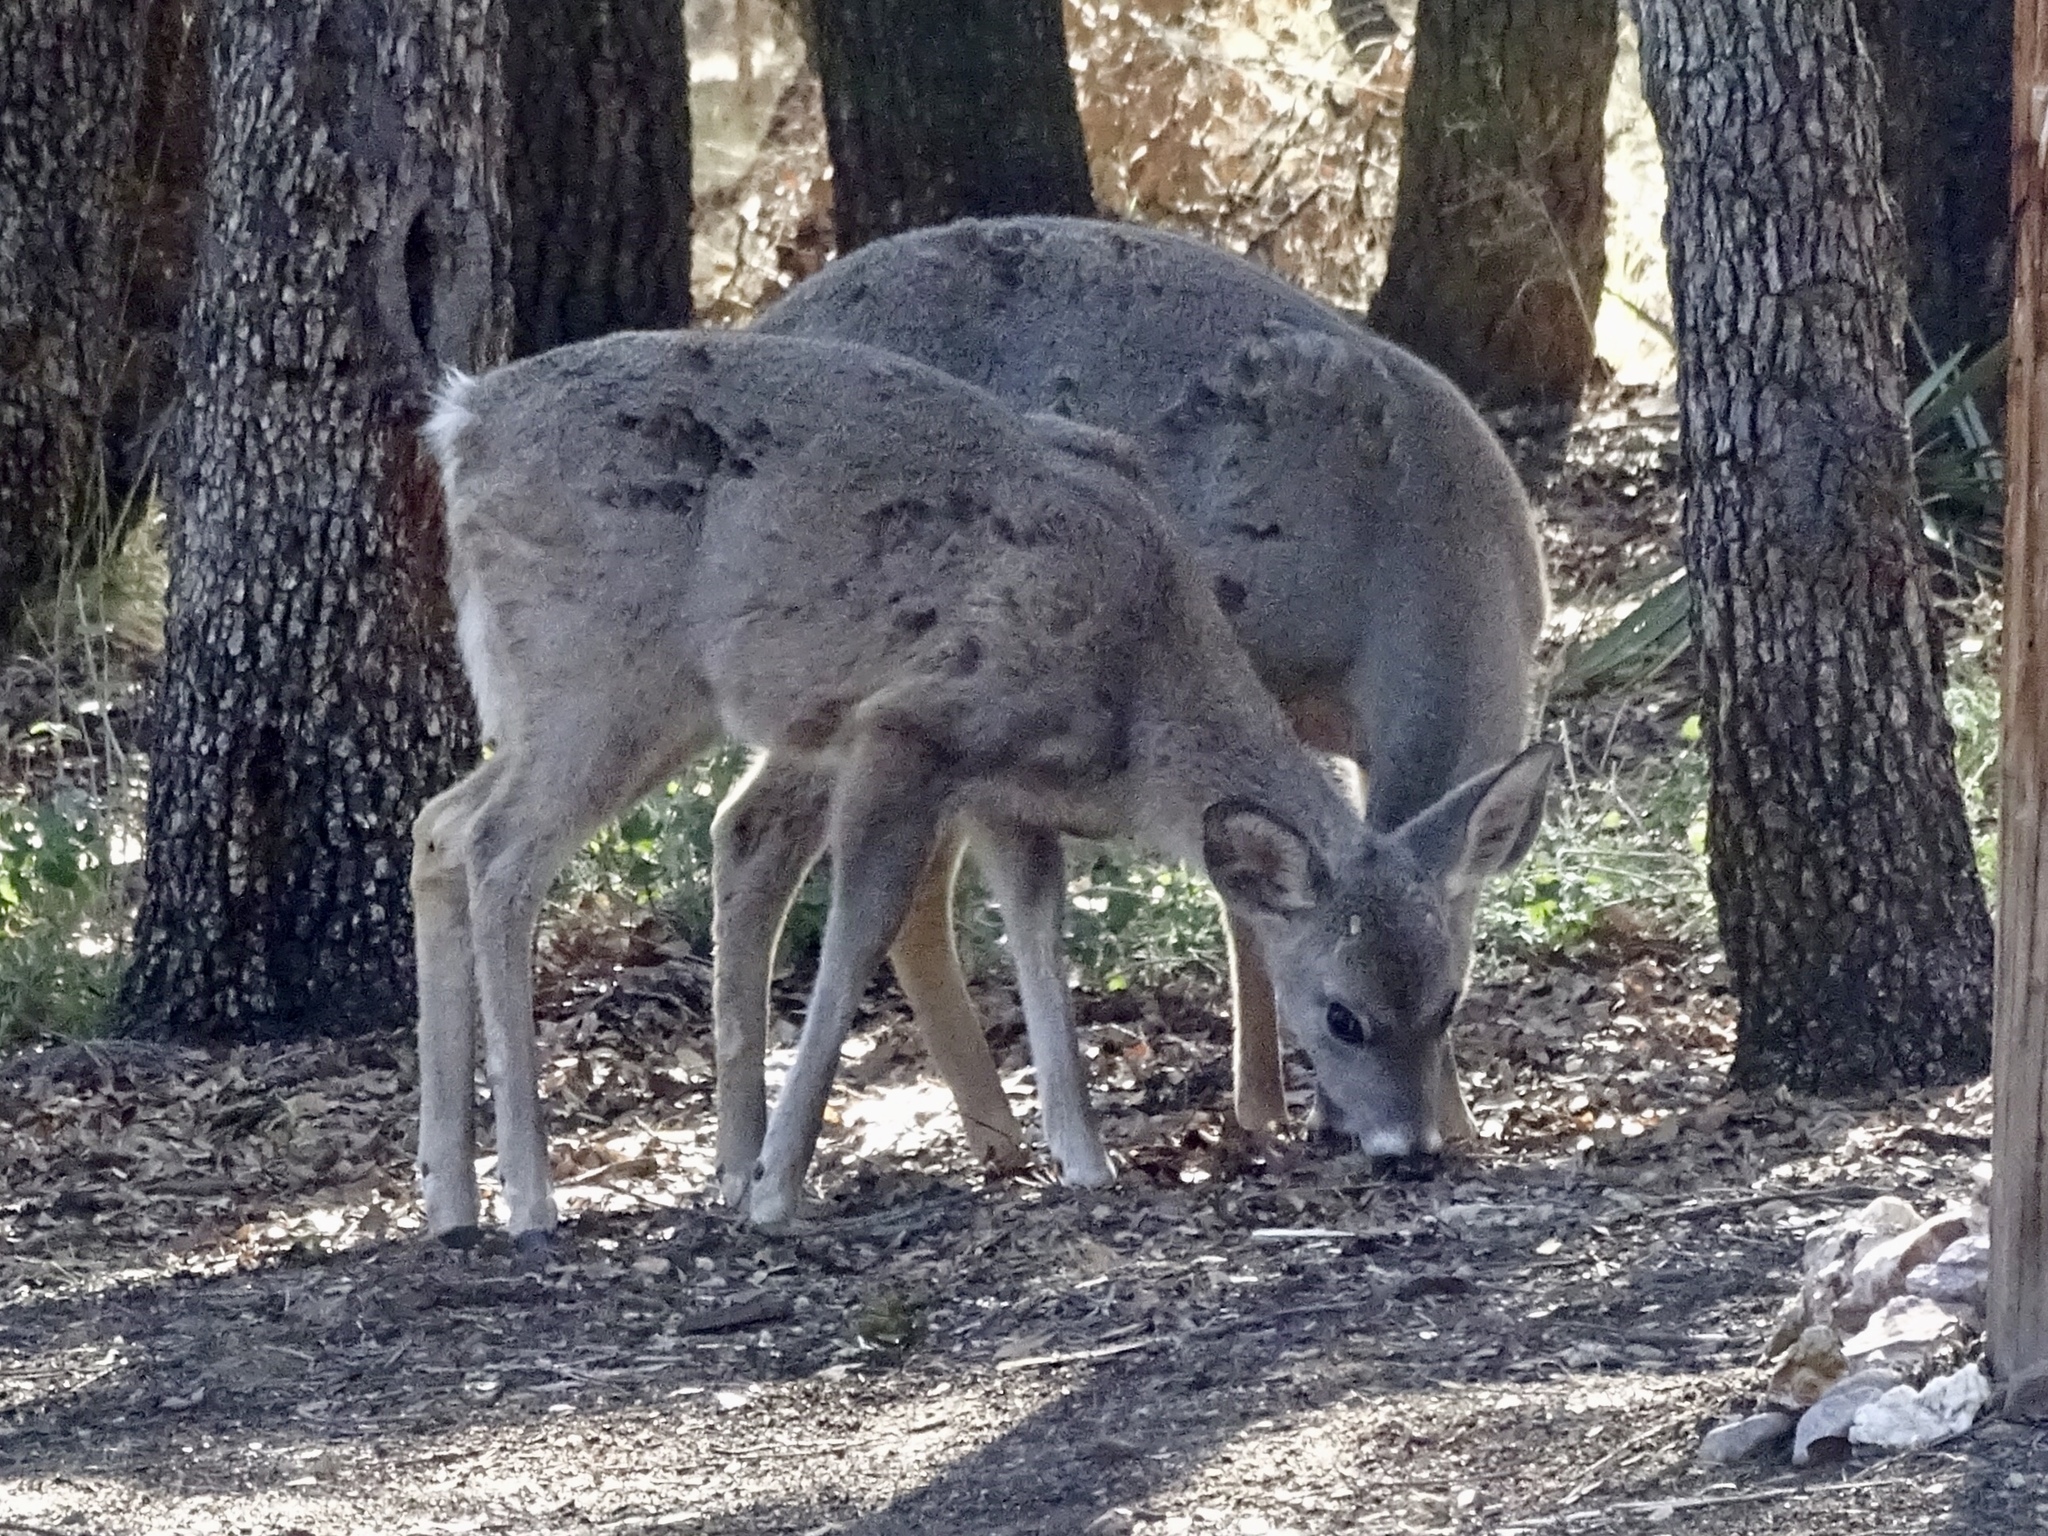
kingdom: Animalia
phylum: Chordata
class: Mammalia
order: Artiodactyla
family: Cervidae
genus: Odocoileus
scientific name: Odocoileus virginianus
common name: White-tailed deer
